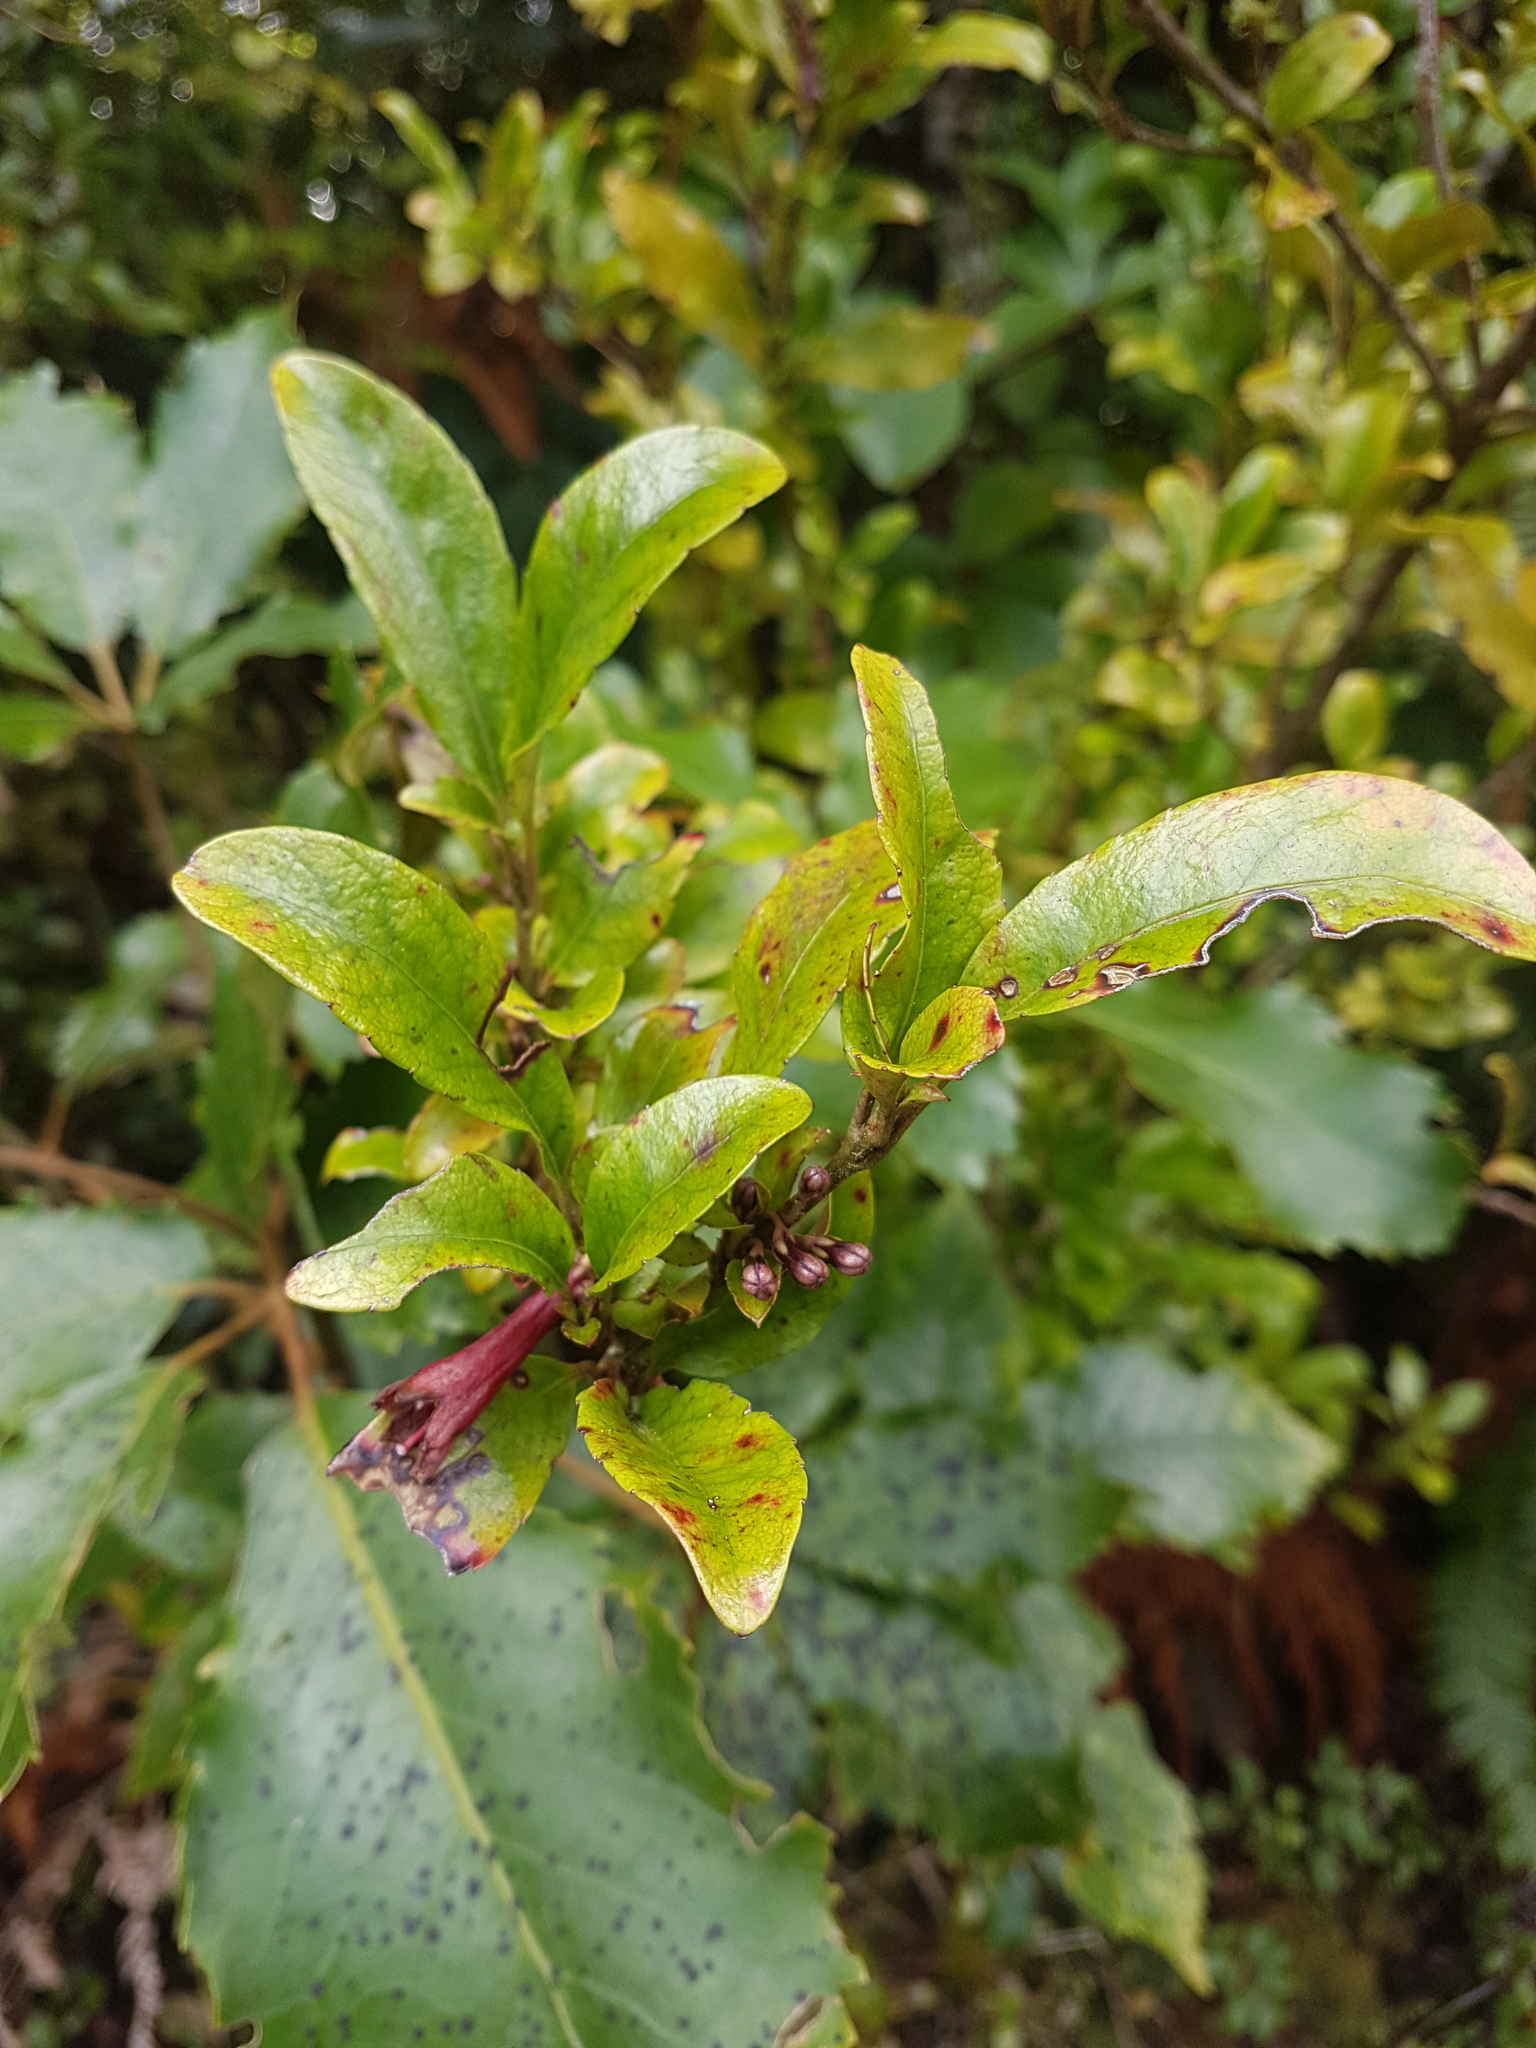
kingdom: Plantae
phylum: Tracheophyta
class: Magnoliopsida
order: Asterales
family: Alseuosmiaceae
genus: Alseuosmia
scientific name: Alseuosmia macrophylla
